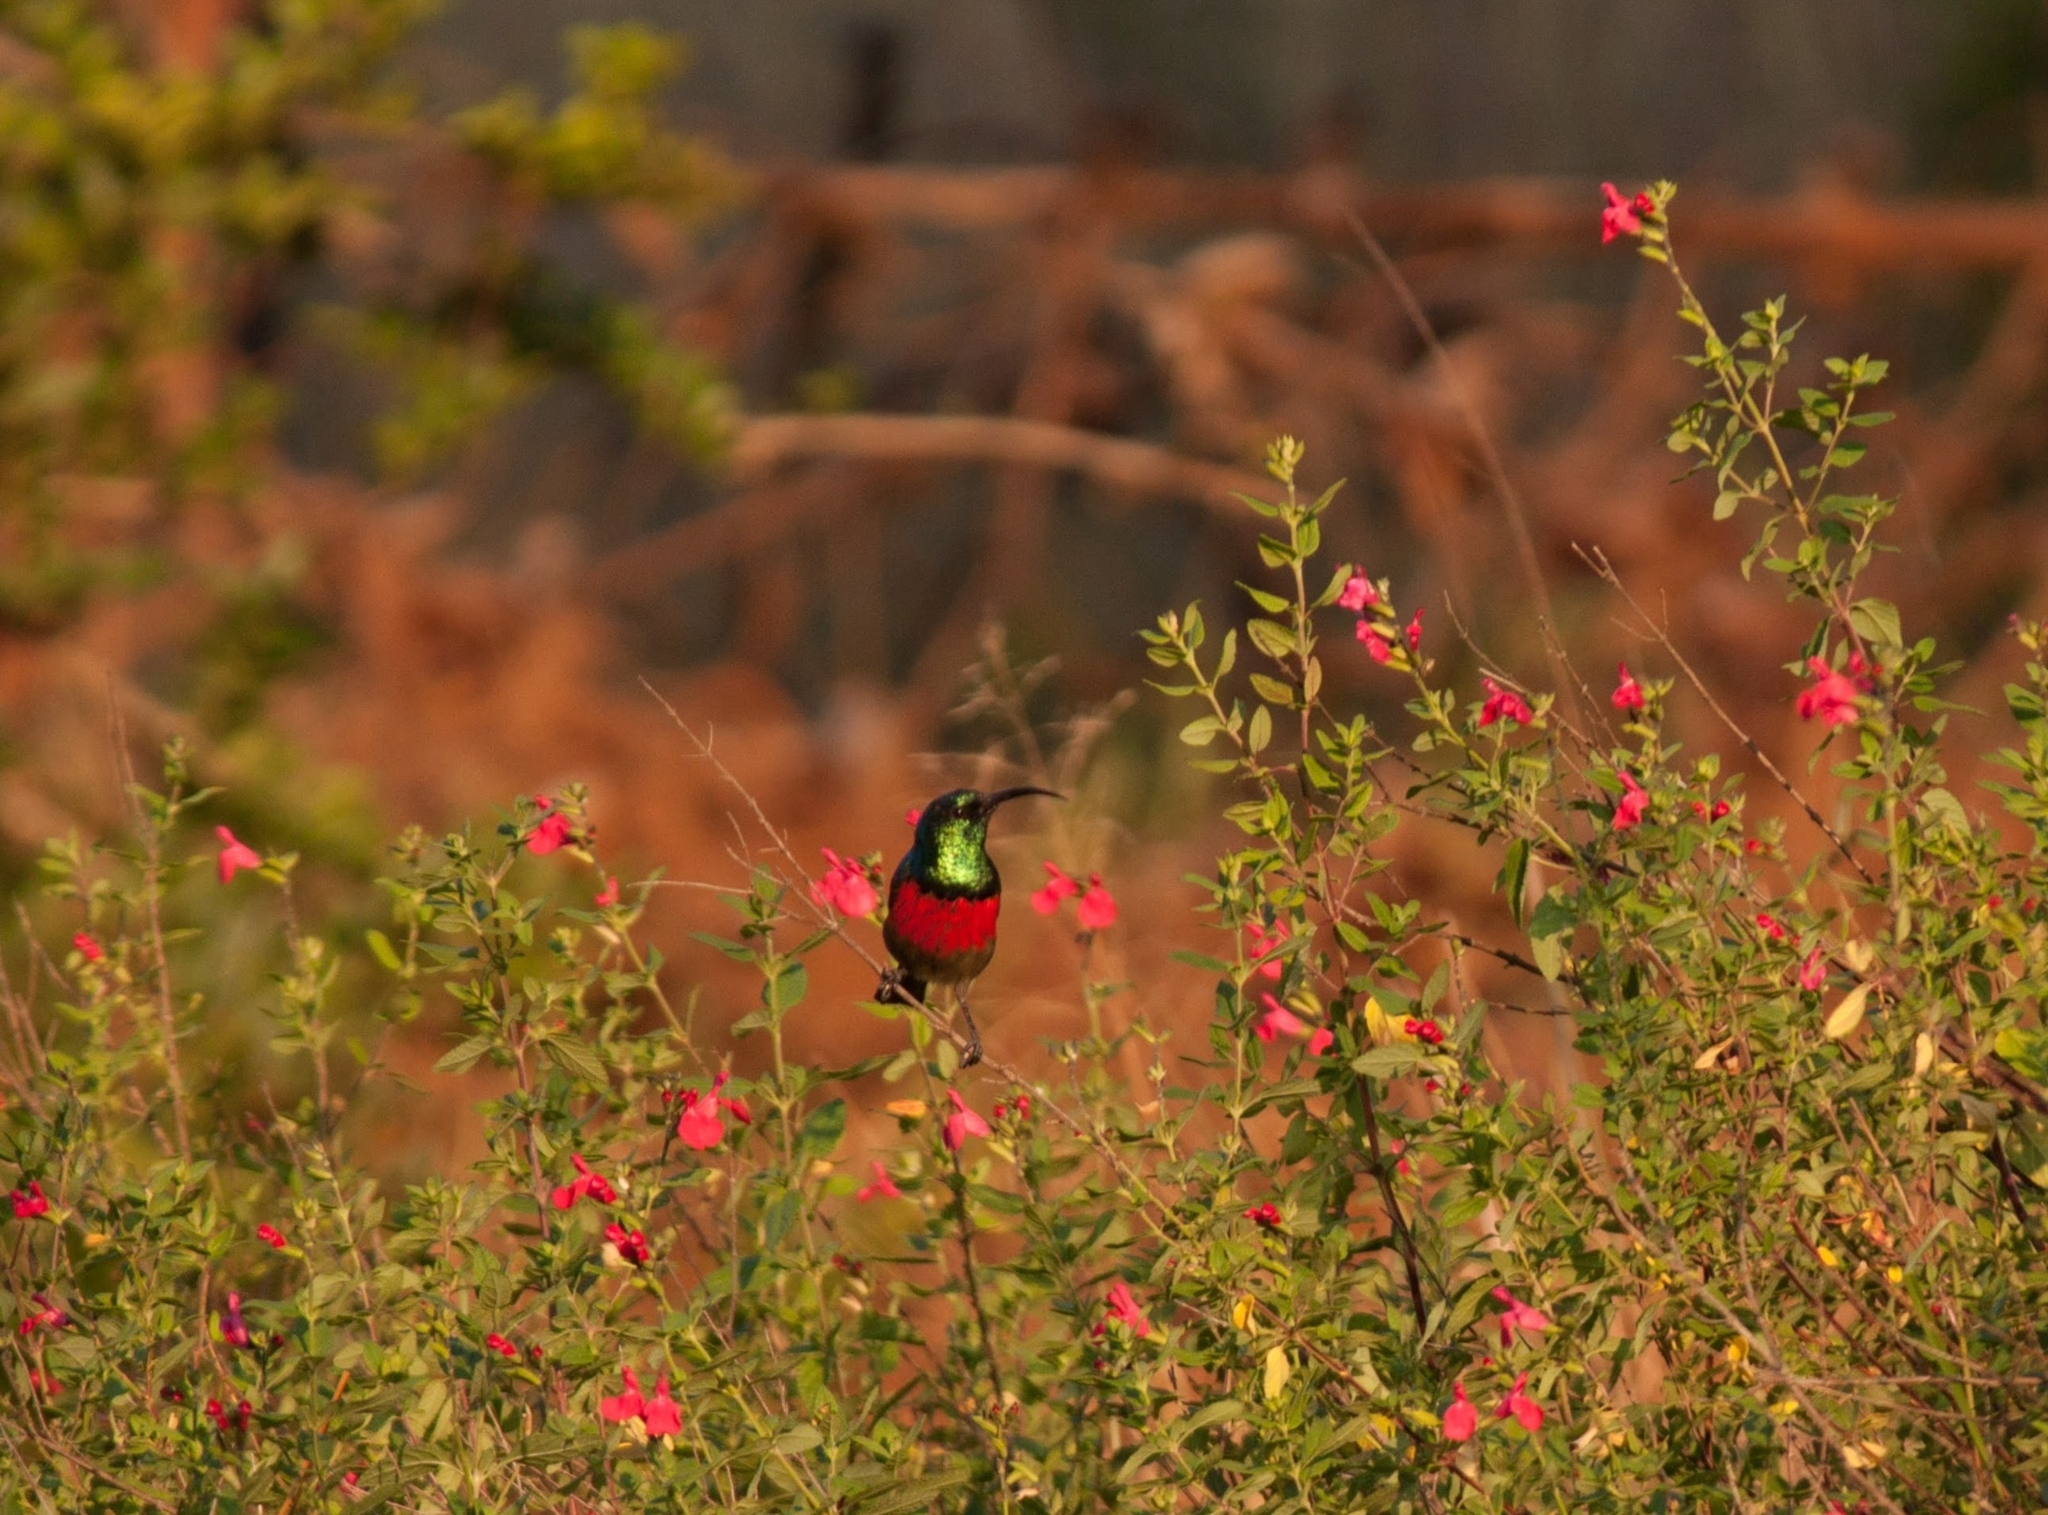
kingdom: Animalia
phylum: Chordata
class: Aves
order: Passeriformes
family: Nectariniidae
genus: Cinnyris
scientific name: Cinnyris afer
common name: Greater double-collared sunbird
